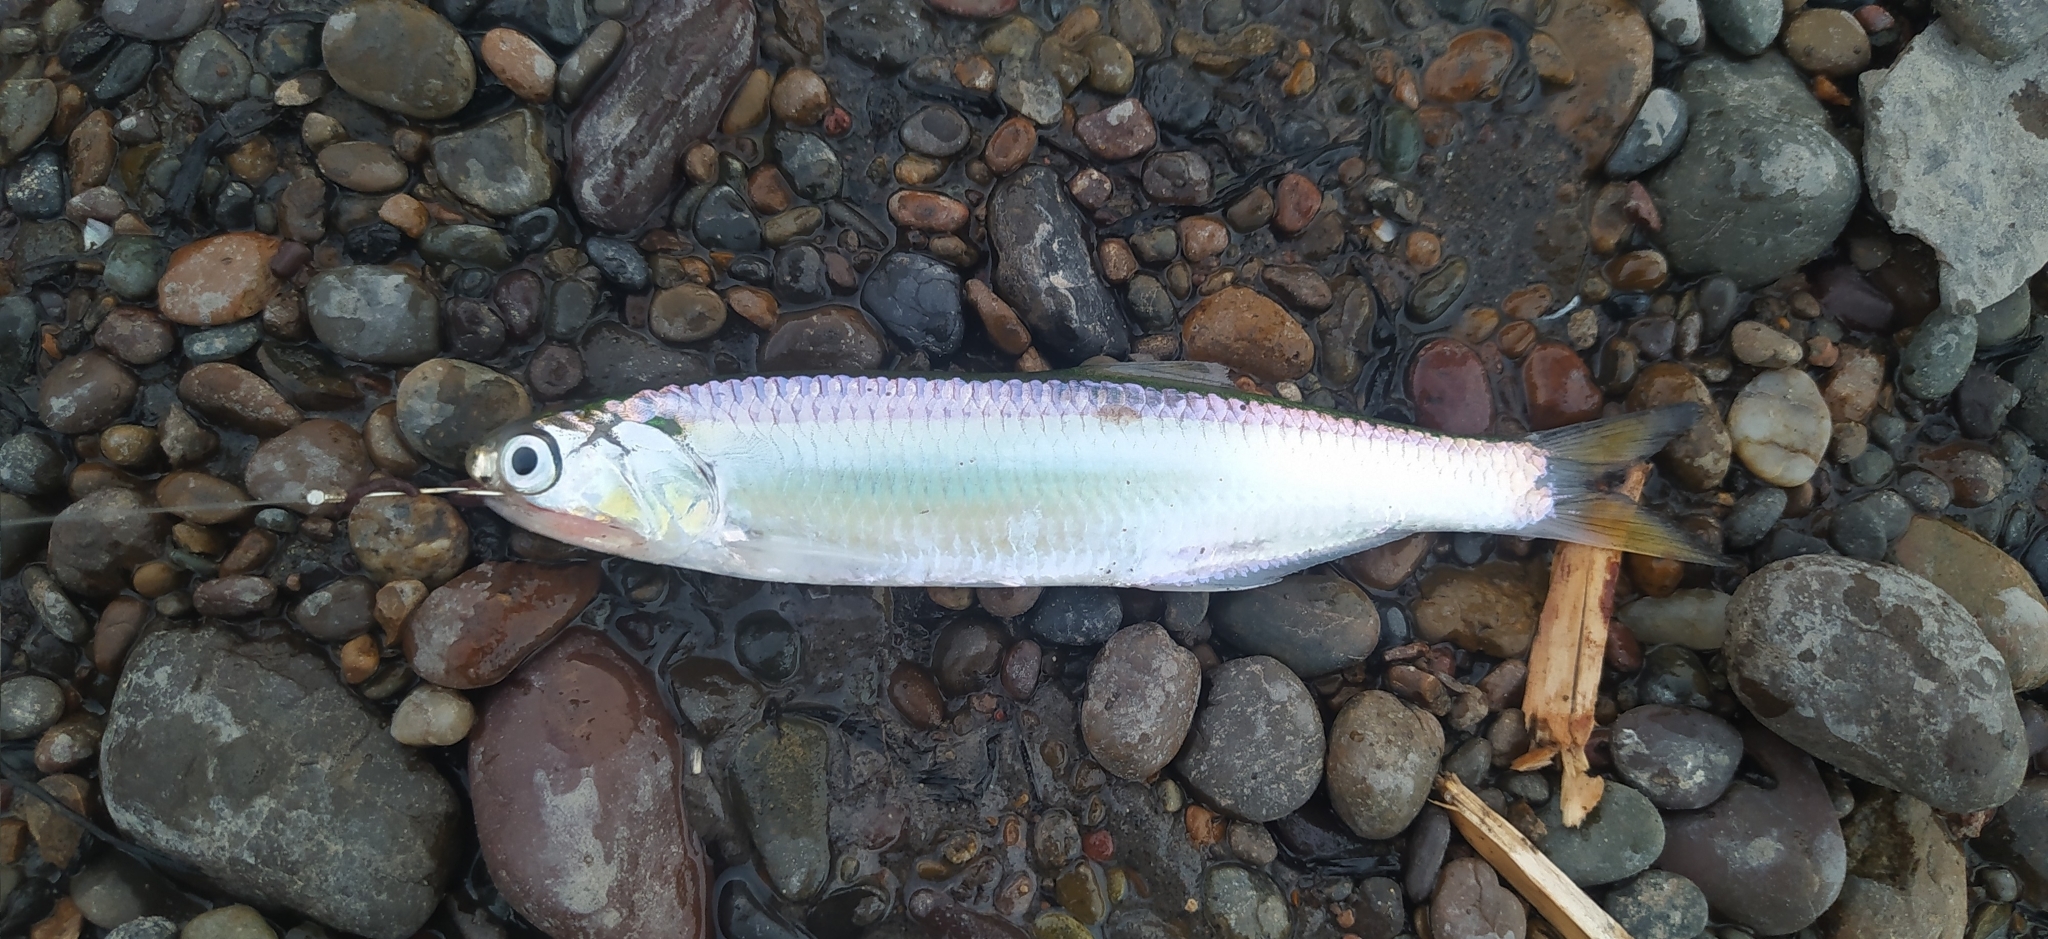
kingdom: Animalia
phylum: Chordata
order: Clupeiformes
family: Engraulidae
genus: Lycengraulis
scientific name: Lycengraulis grossidens
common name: Atlantic sabertooth anchovy
